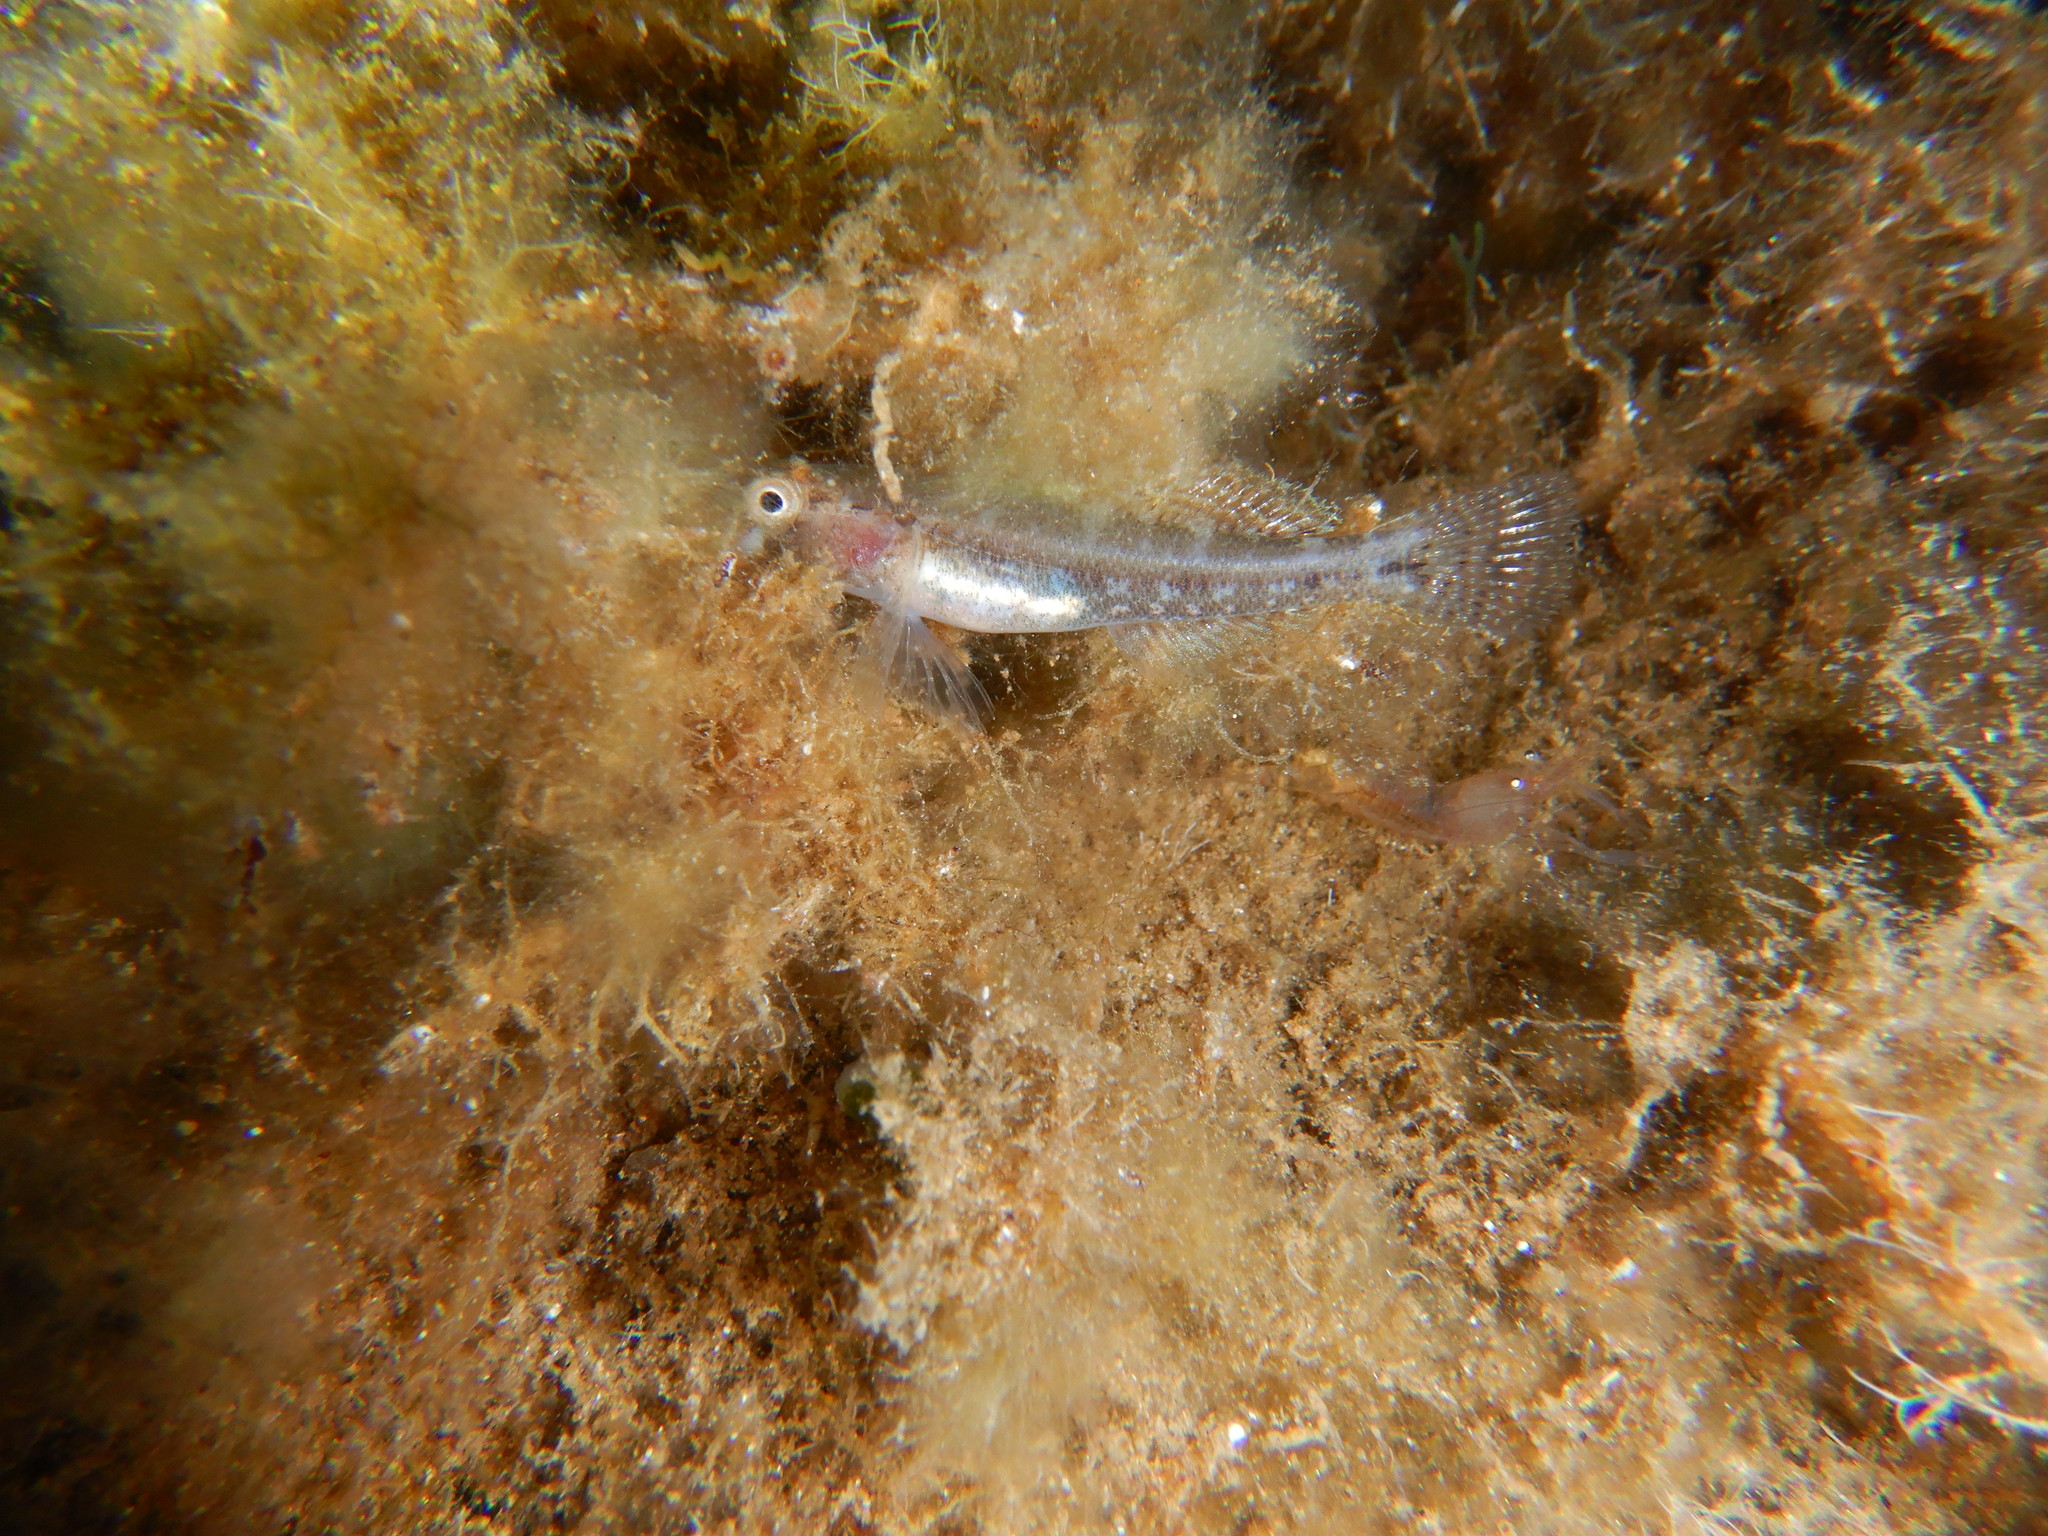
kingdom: Animalia
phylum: Chordata
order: Perciformes
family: Gobiidae
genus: Gobius
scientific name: Gobius cruentatus
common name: Red-mouthed goby
